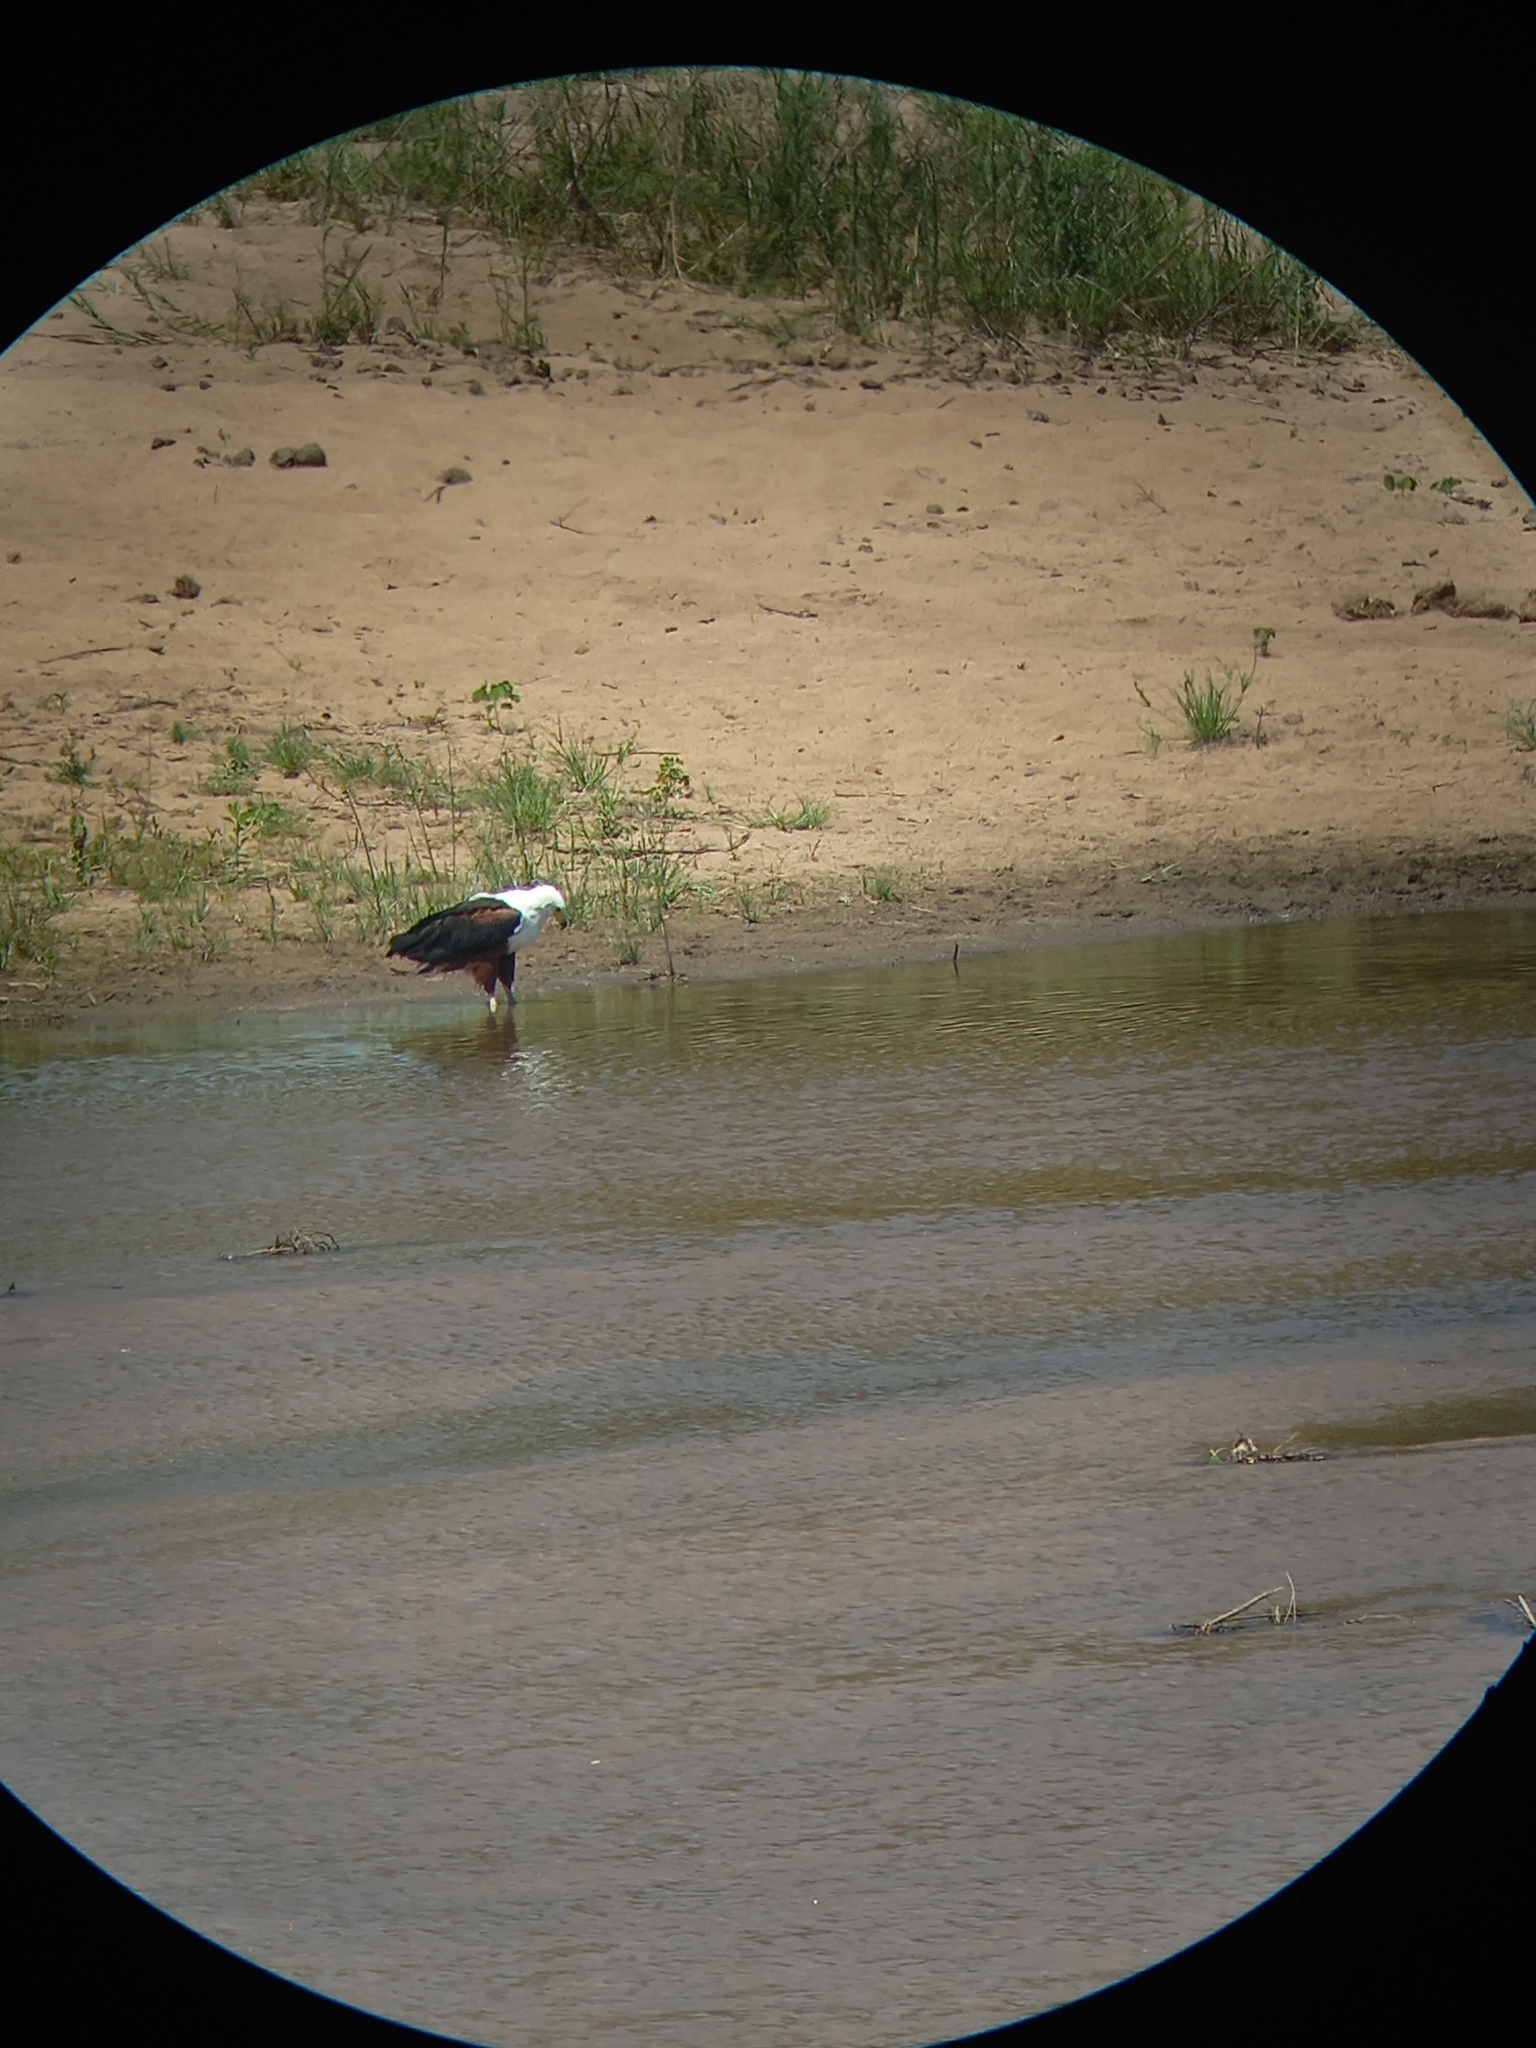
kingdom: Animalia
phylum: Chordata
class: Aves
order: Accipitriformes
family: Accipitridae
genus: Haliaeetus
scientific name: Haliaeetus vocifer
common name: African fish eagle
